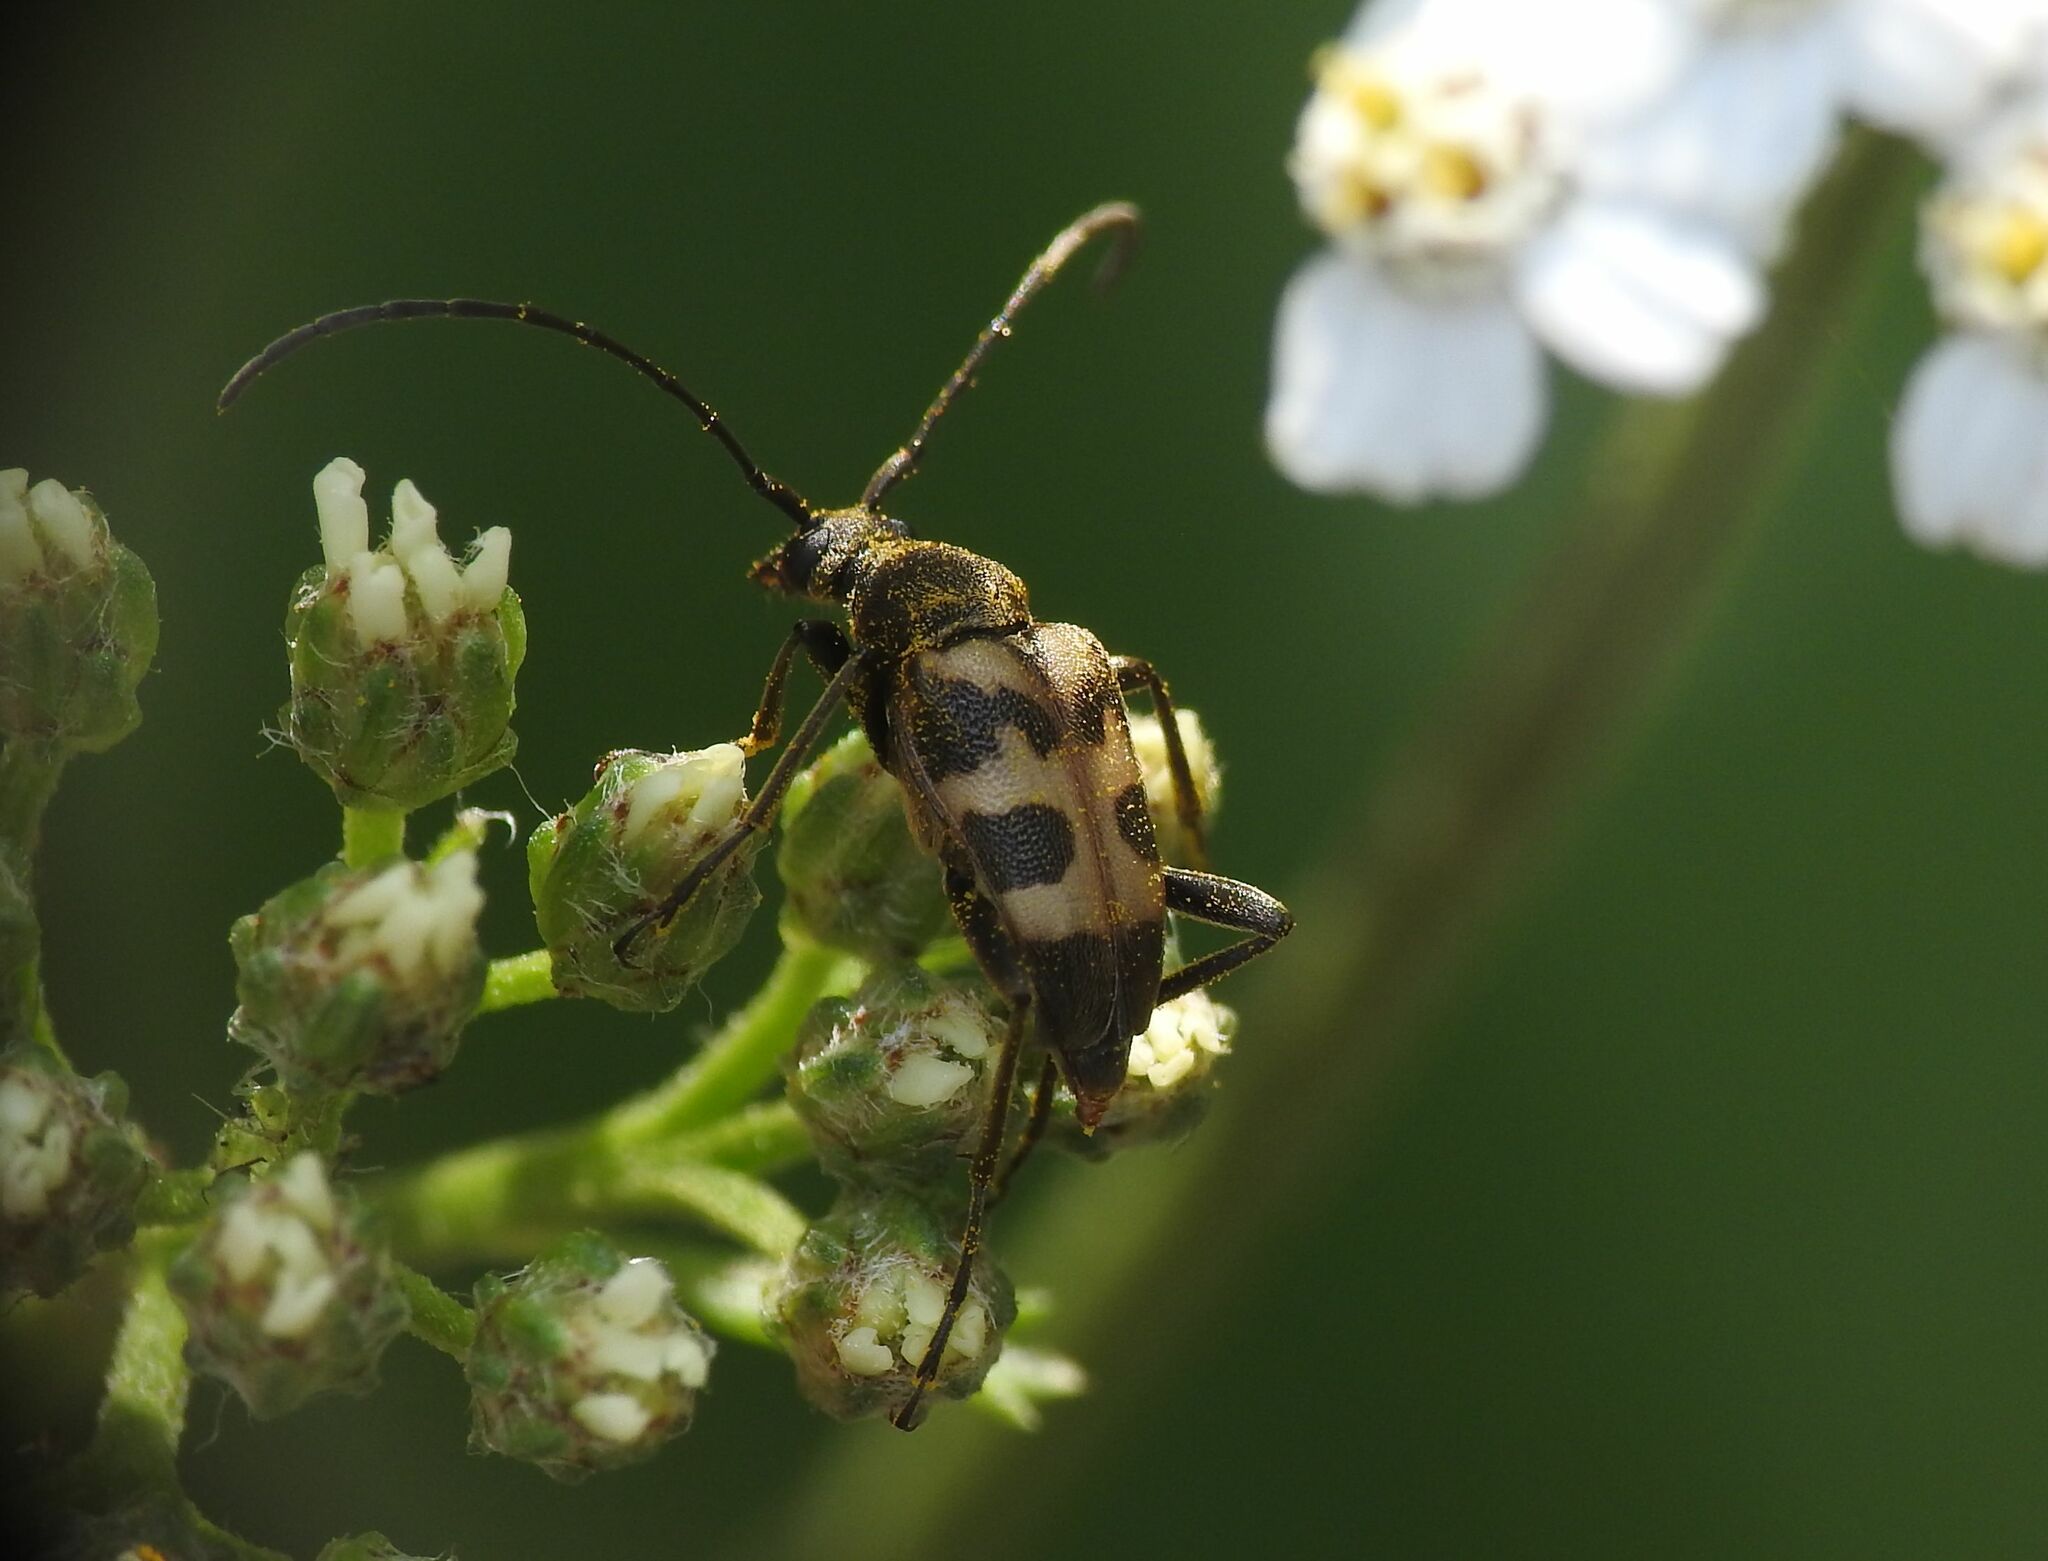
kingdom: Animalia
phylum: Arthropoda
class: Insecta
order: Coleoptera
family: Cerambycidae
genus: Pachytodes
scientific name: Pachytodes cerambyciformis
